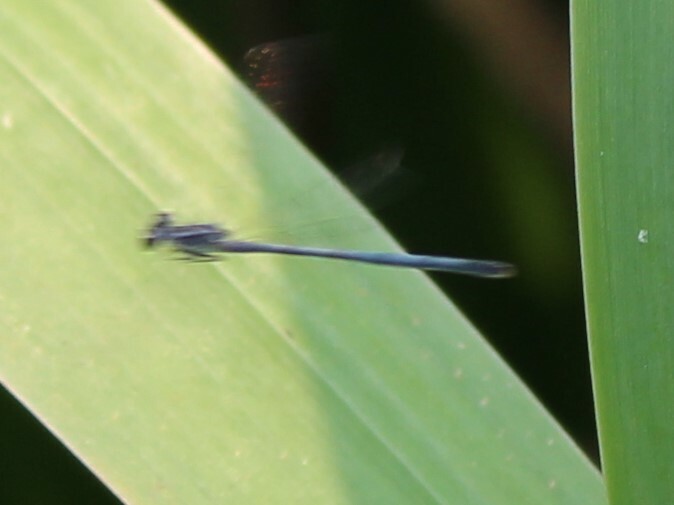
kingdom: Animalia
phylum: Arthropoda
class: Insecta
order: Odonata
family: Coenagrionidae
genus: Ischnura
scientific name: Ischnura verticalis
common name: Eastern forktail
